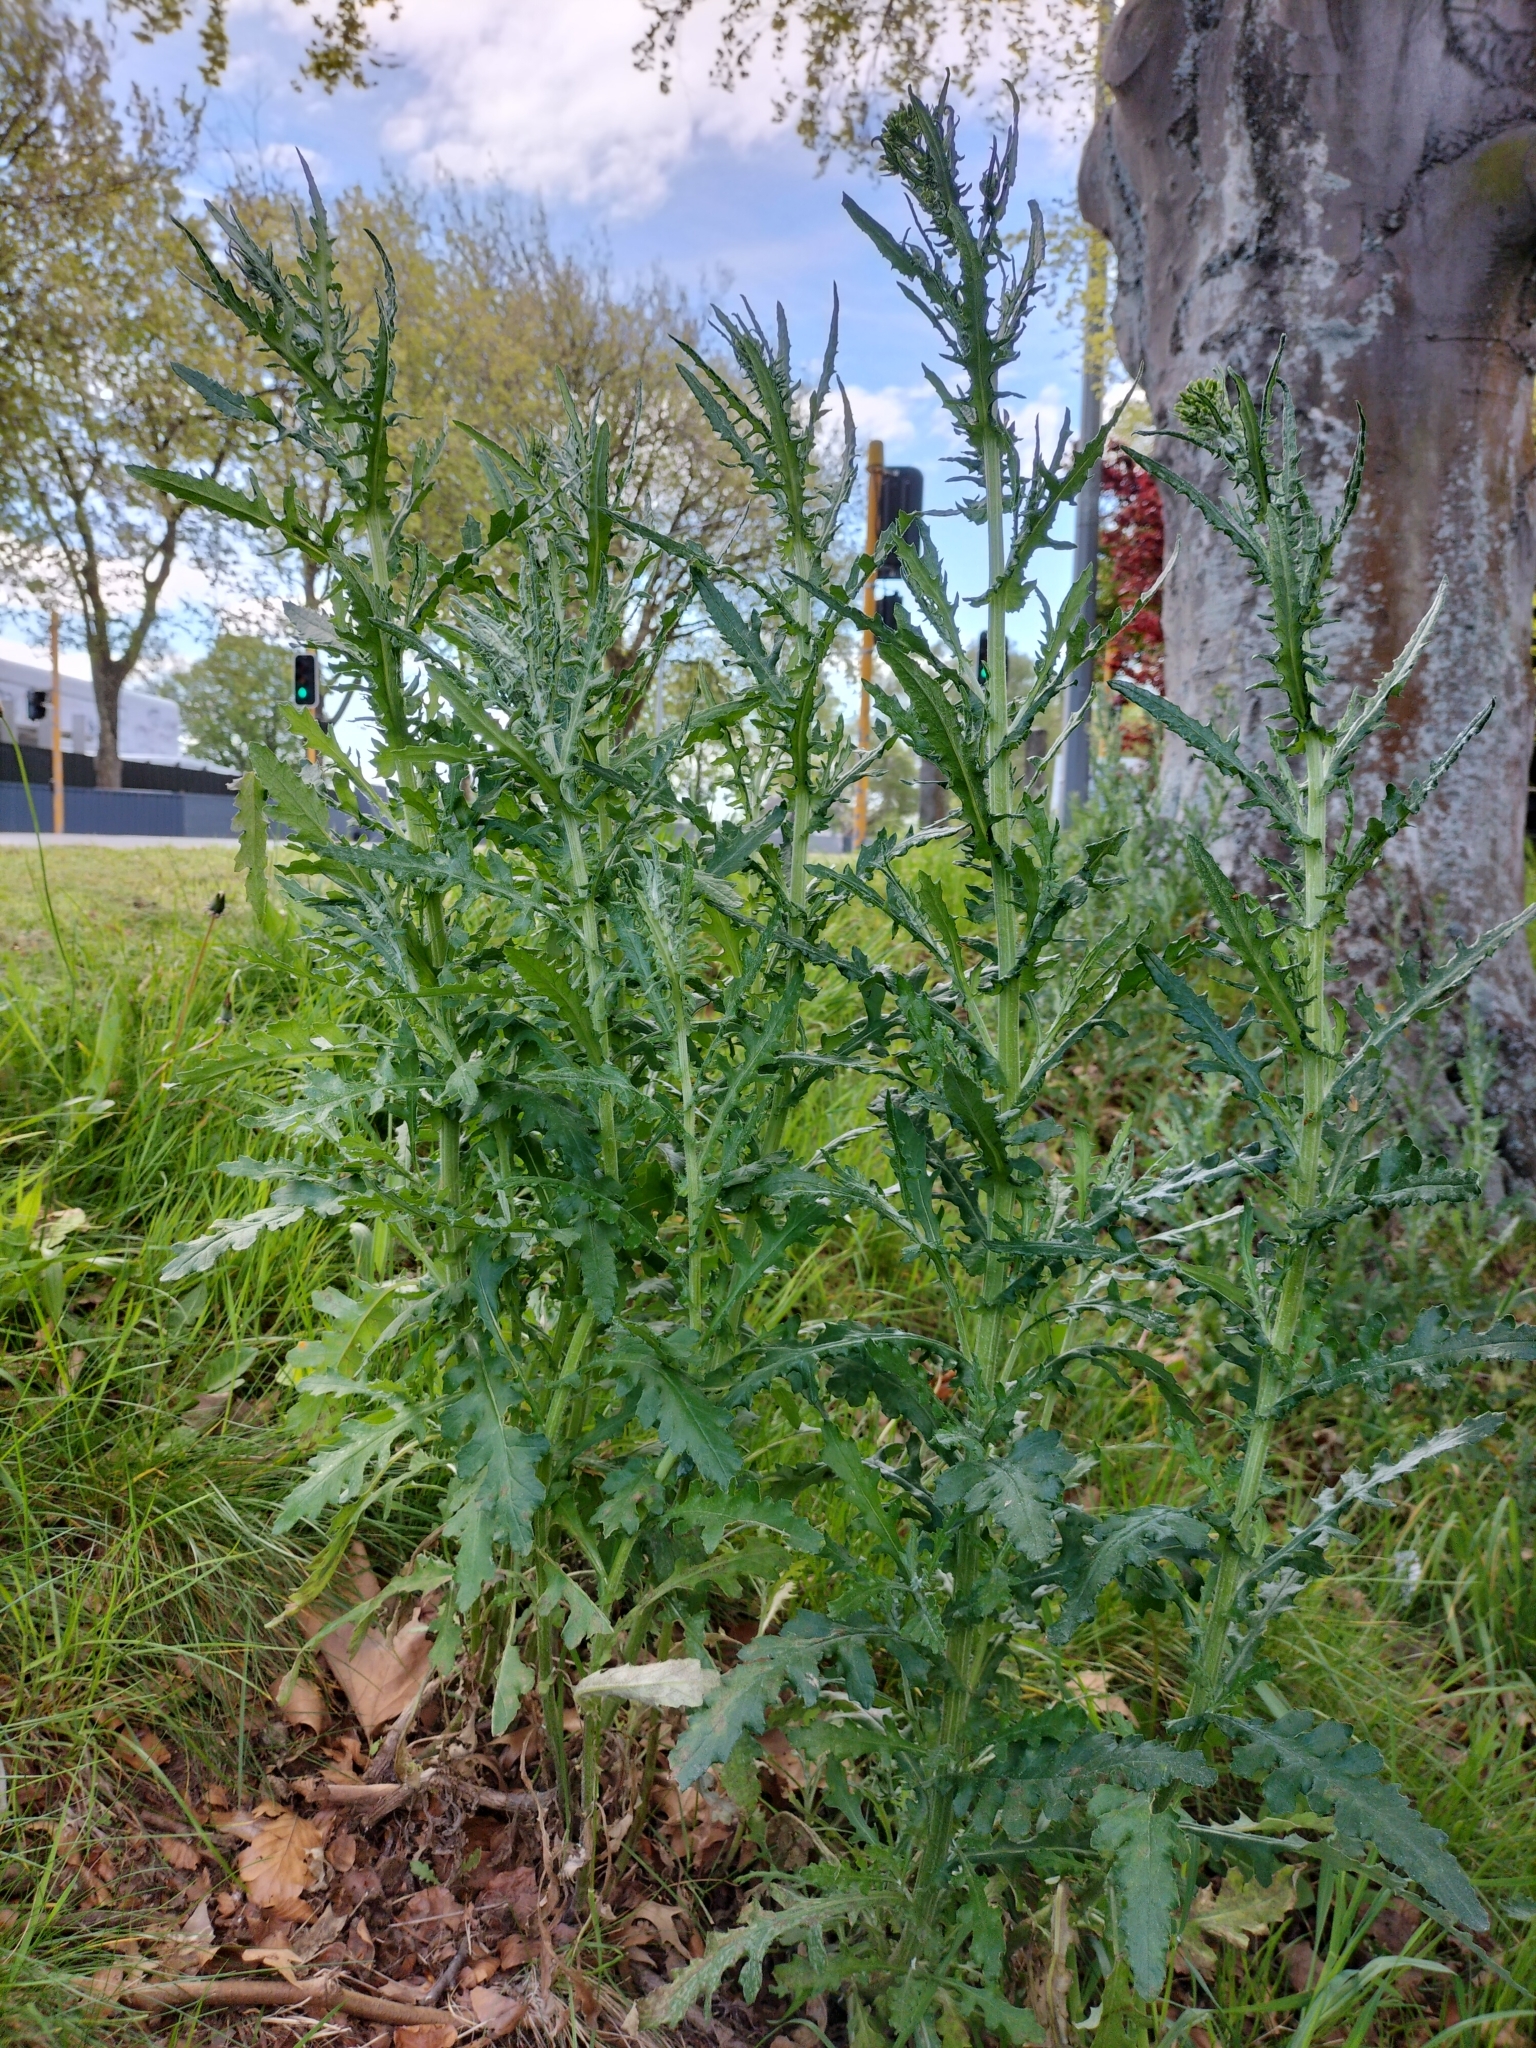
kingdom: Plantae
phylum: Tracheophyta
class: Magnoliopsida
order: Asterales
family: Asteraceae
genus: Senecio
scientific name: Senecio glomeratus
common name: Cutleaf burnweed
